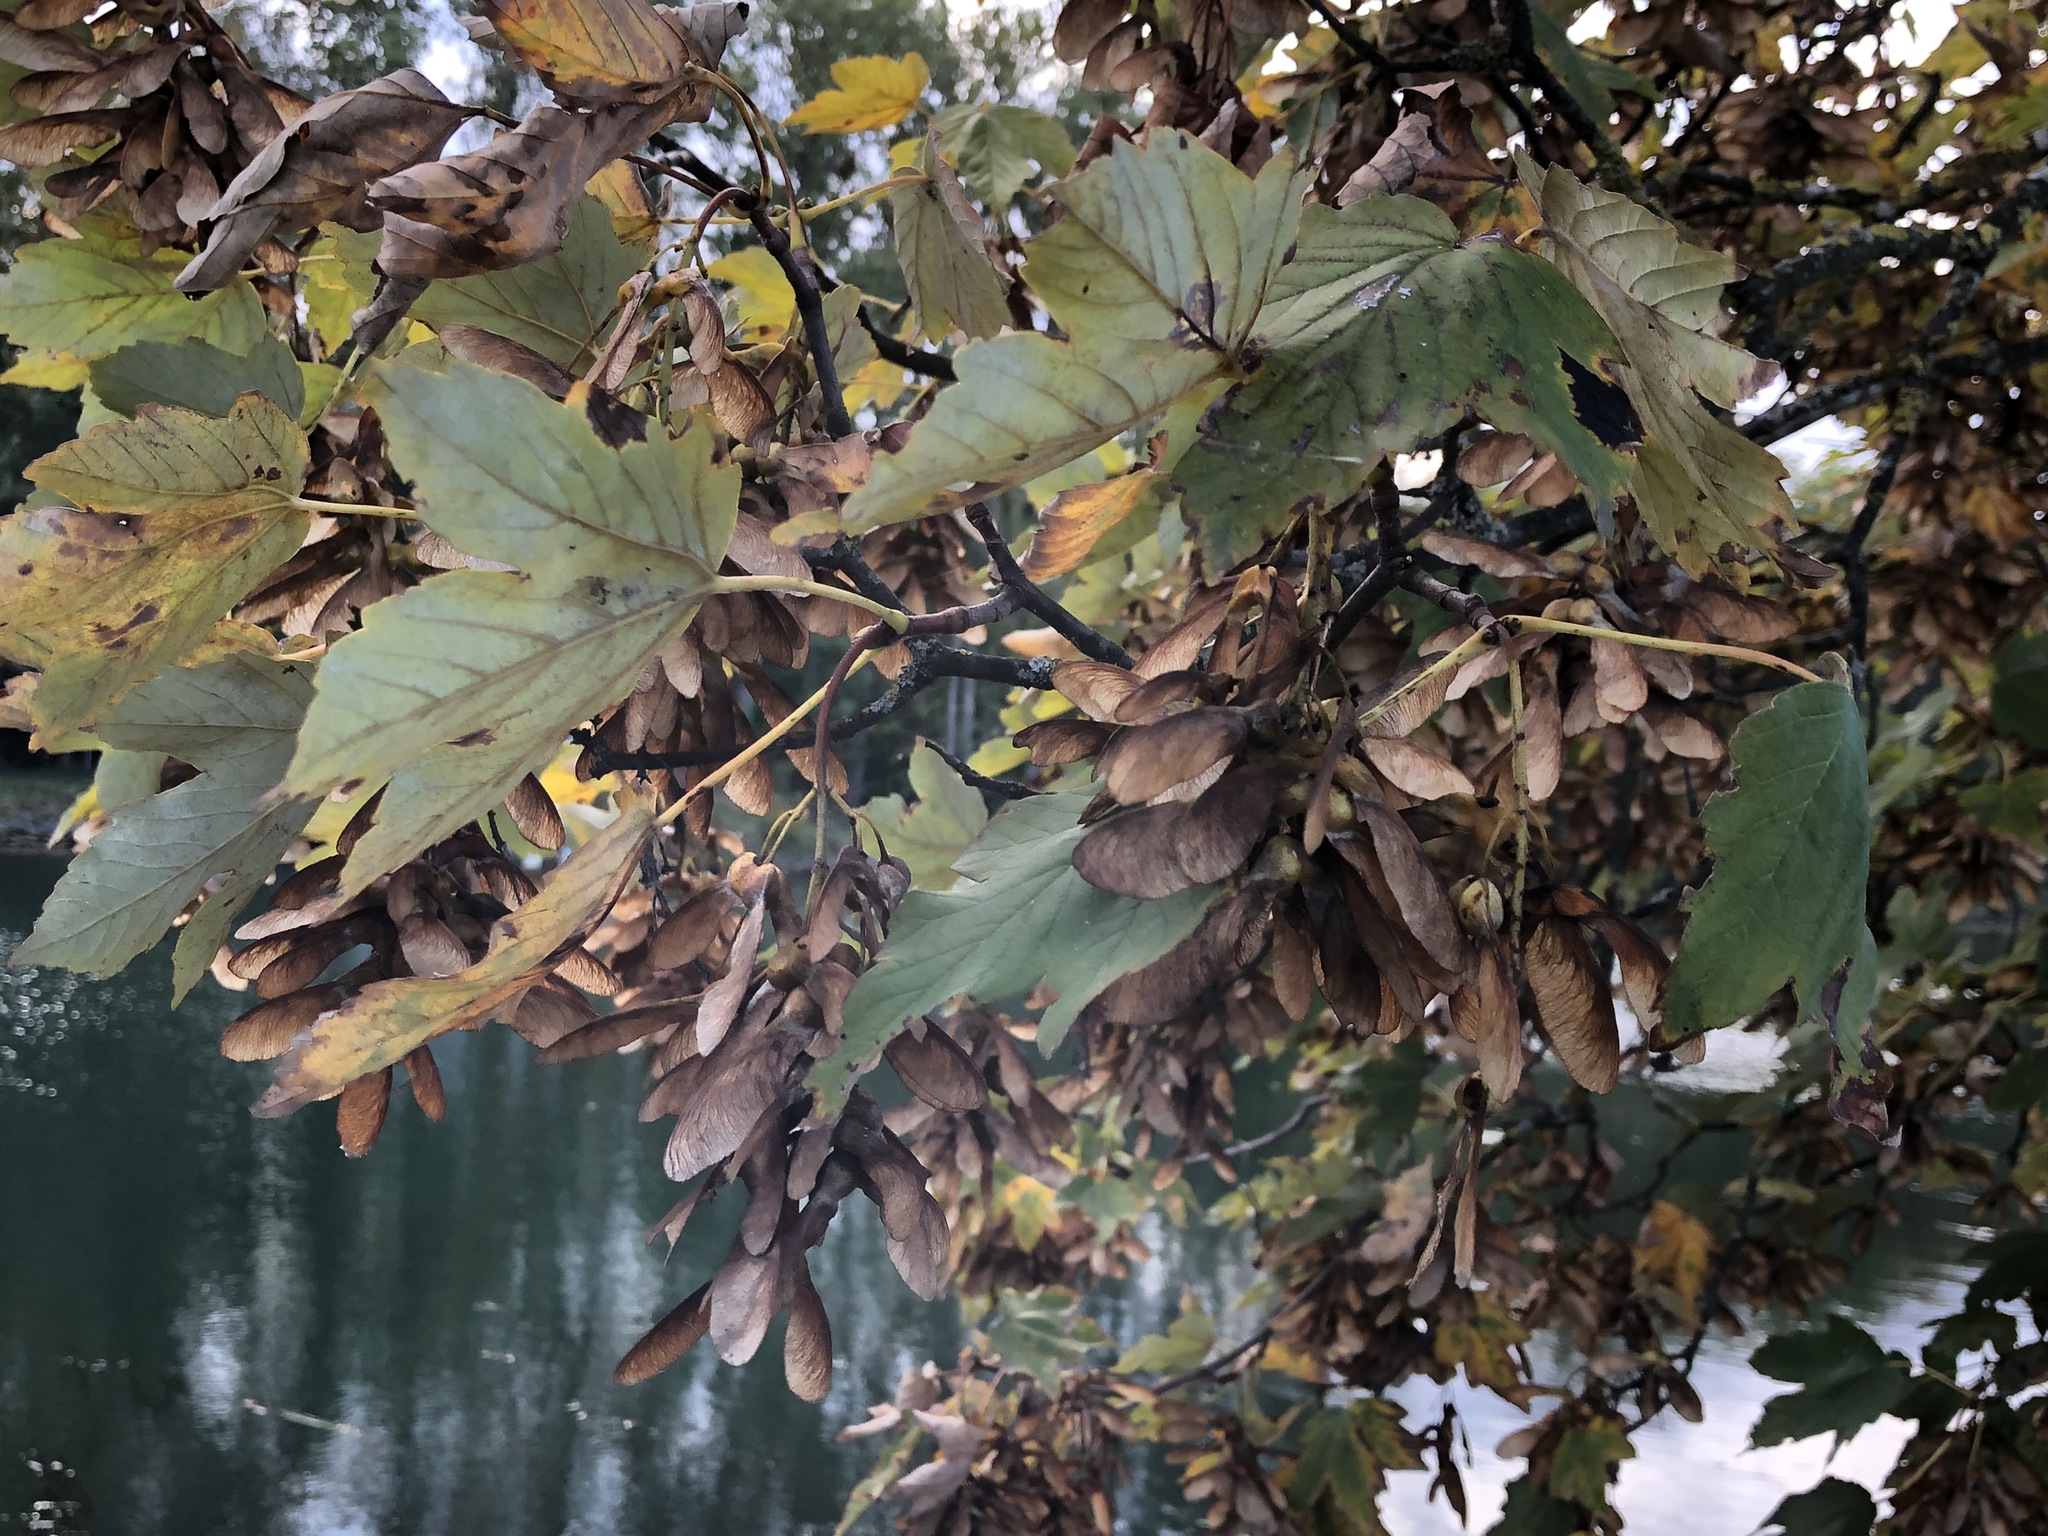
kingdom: Plantae
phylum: Tracheophyta
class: Magnoliopsida
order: Sapindales
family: Sapindaceae
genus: Acer
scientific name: Acer pseudoplatanus
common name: Sycamore
